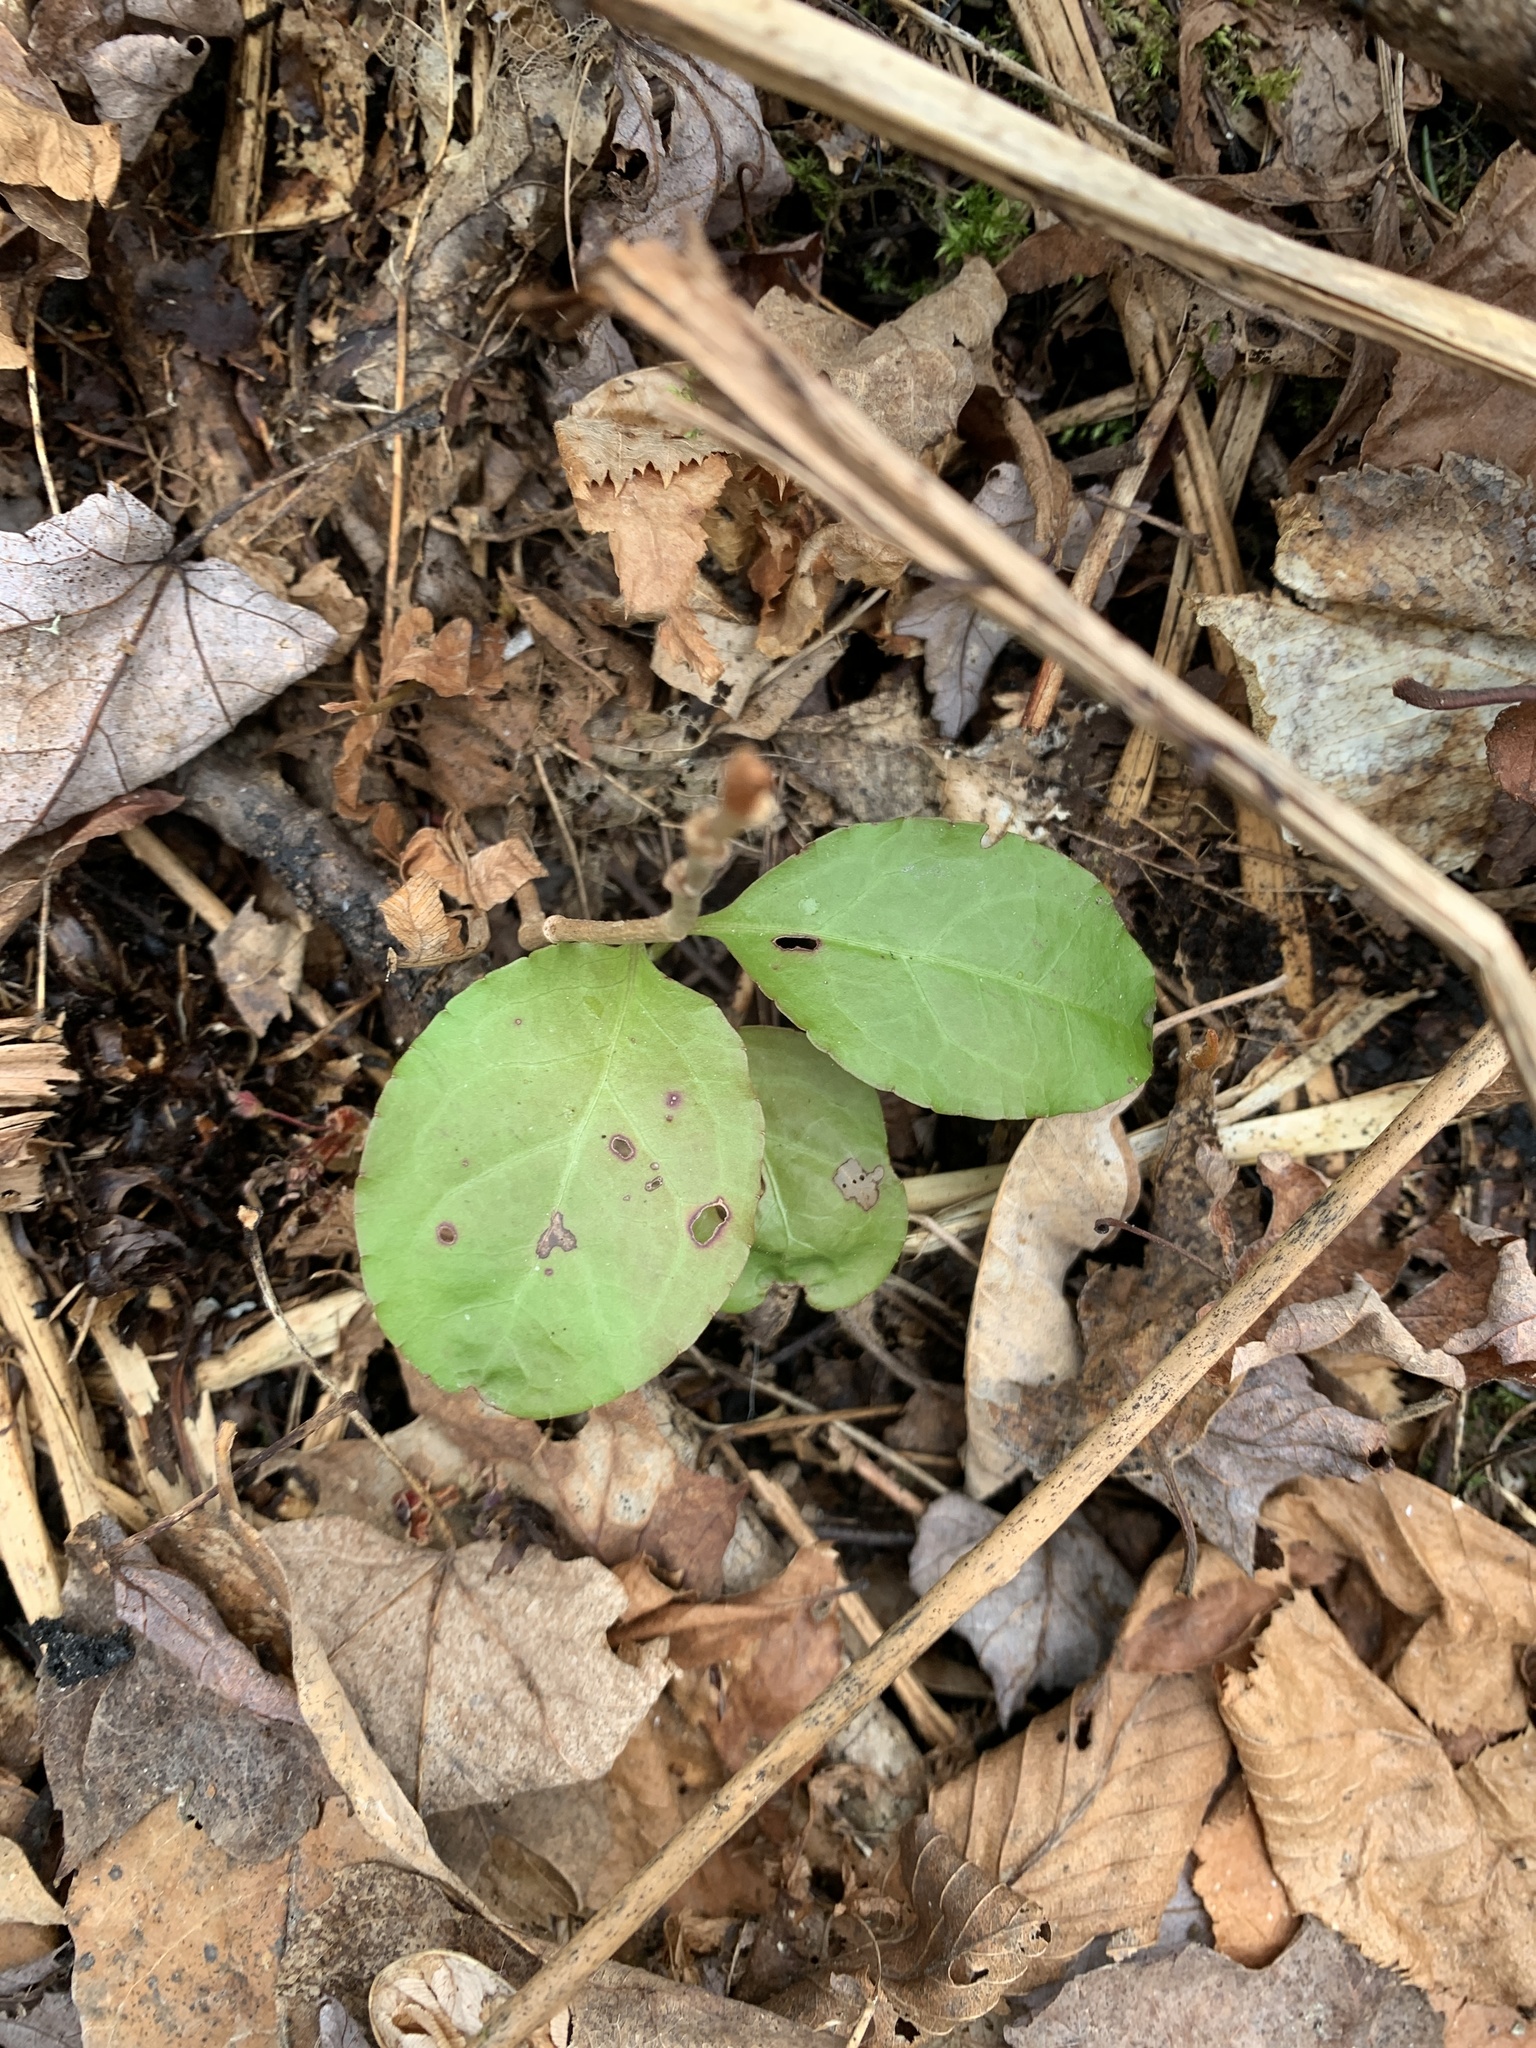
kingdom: Plantae
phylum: Tracheophyta
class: Magnoliopsida
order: Ericales
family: Ericaceae
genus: Pyrola
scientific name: Pyrola elliptica
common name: Shinleaf
